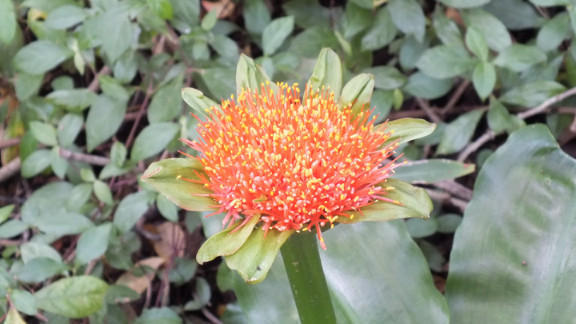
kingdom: Plantae
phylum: Tracheophyta
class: Liliopsida
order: Asparagales
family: Amaryllidaceae
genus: Scadoxus
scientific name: Scadoxus puniceus
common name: Royal-paintbrush
